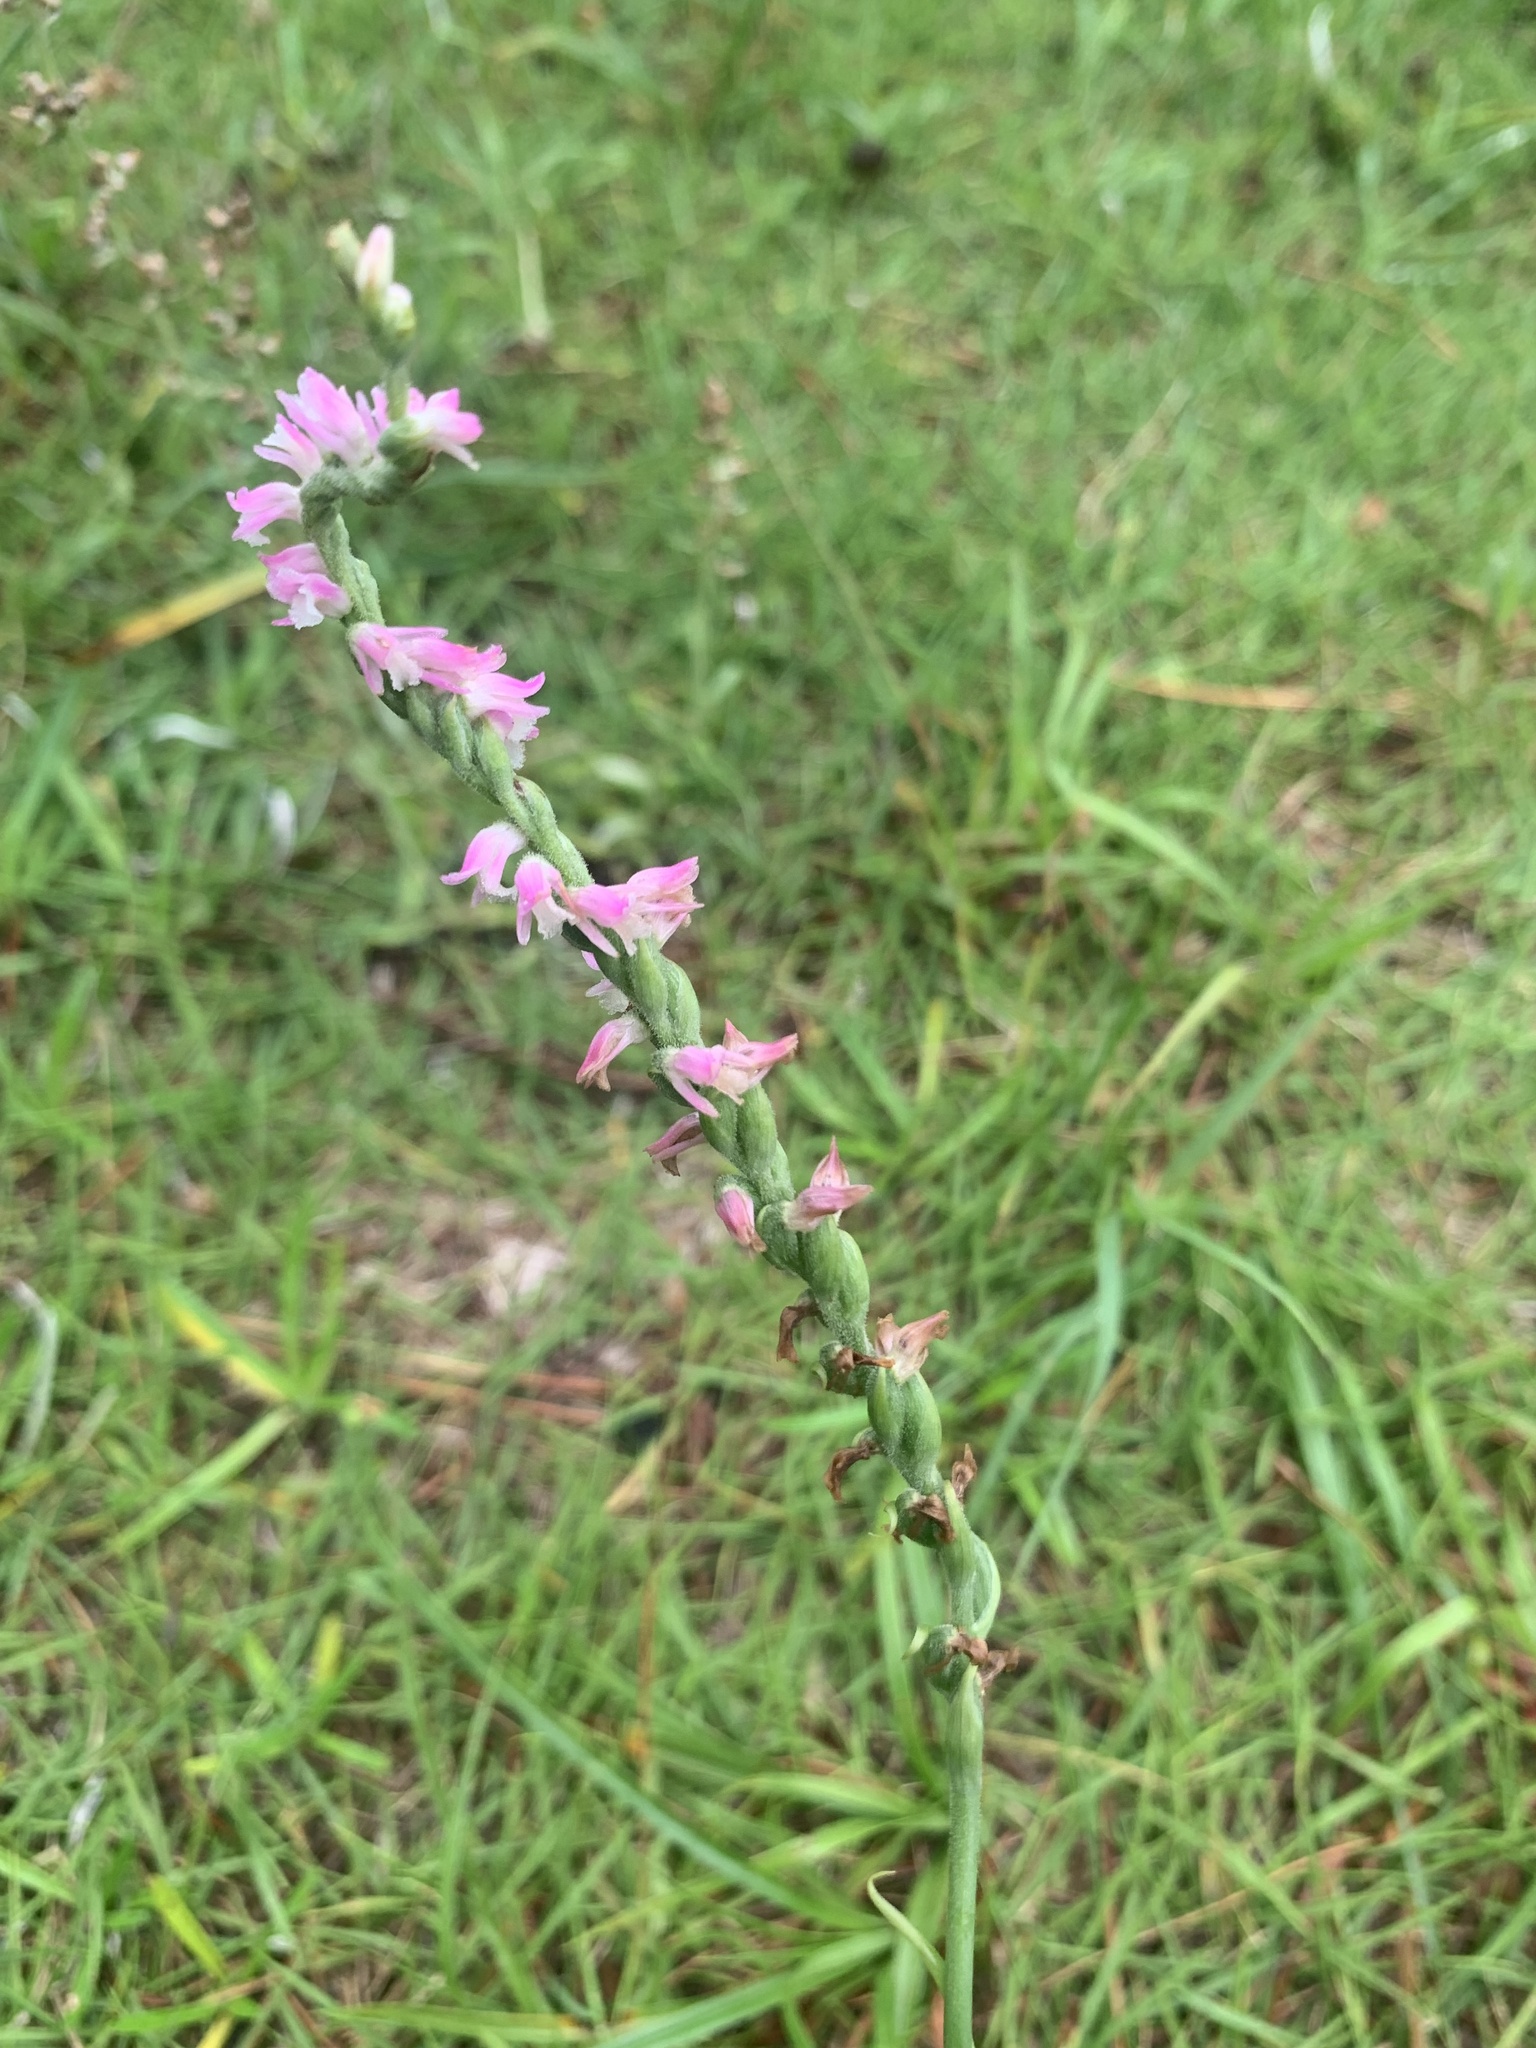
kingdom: Plantae
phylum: Tracheophyta
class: Liliopsida
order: Asparagales
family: Orchidaceae
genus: Spiranthes
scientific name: Spiranthes australis
